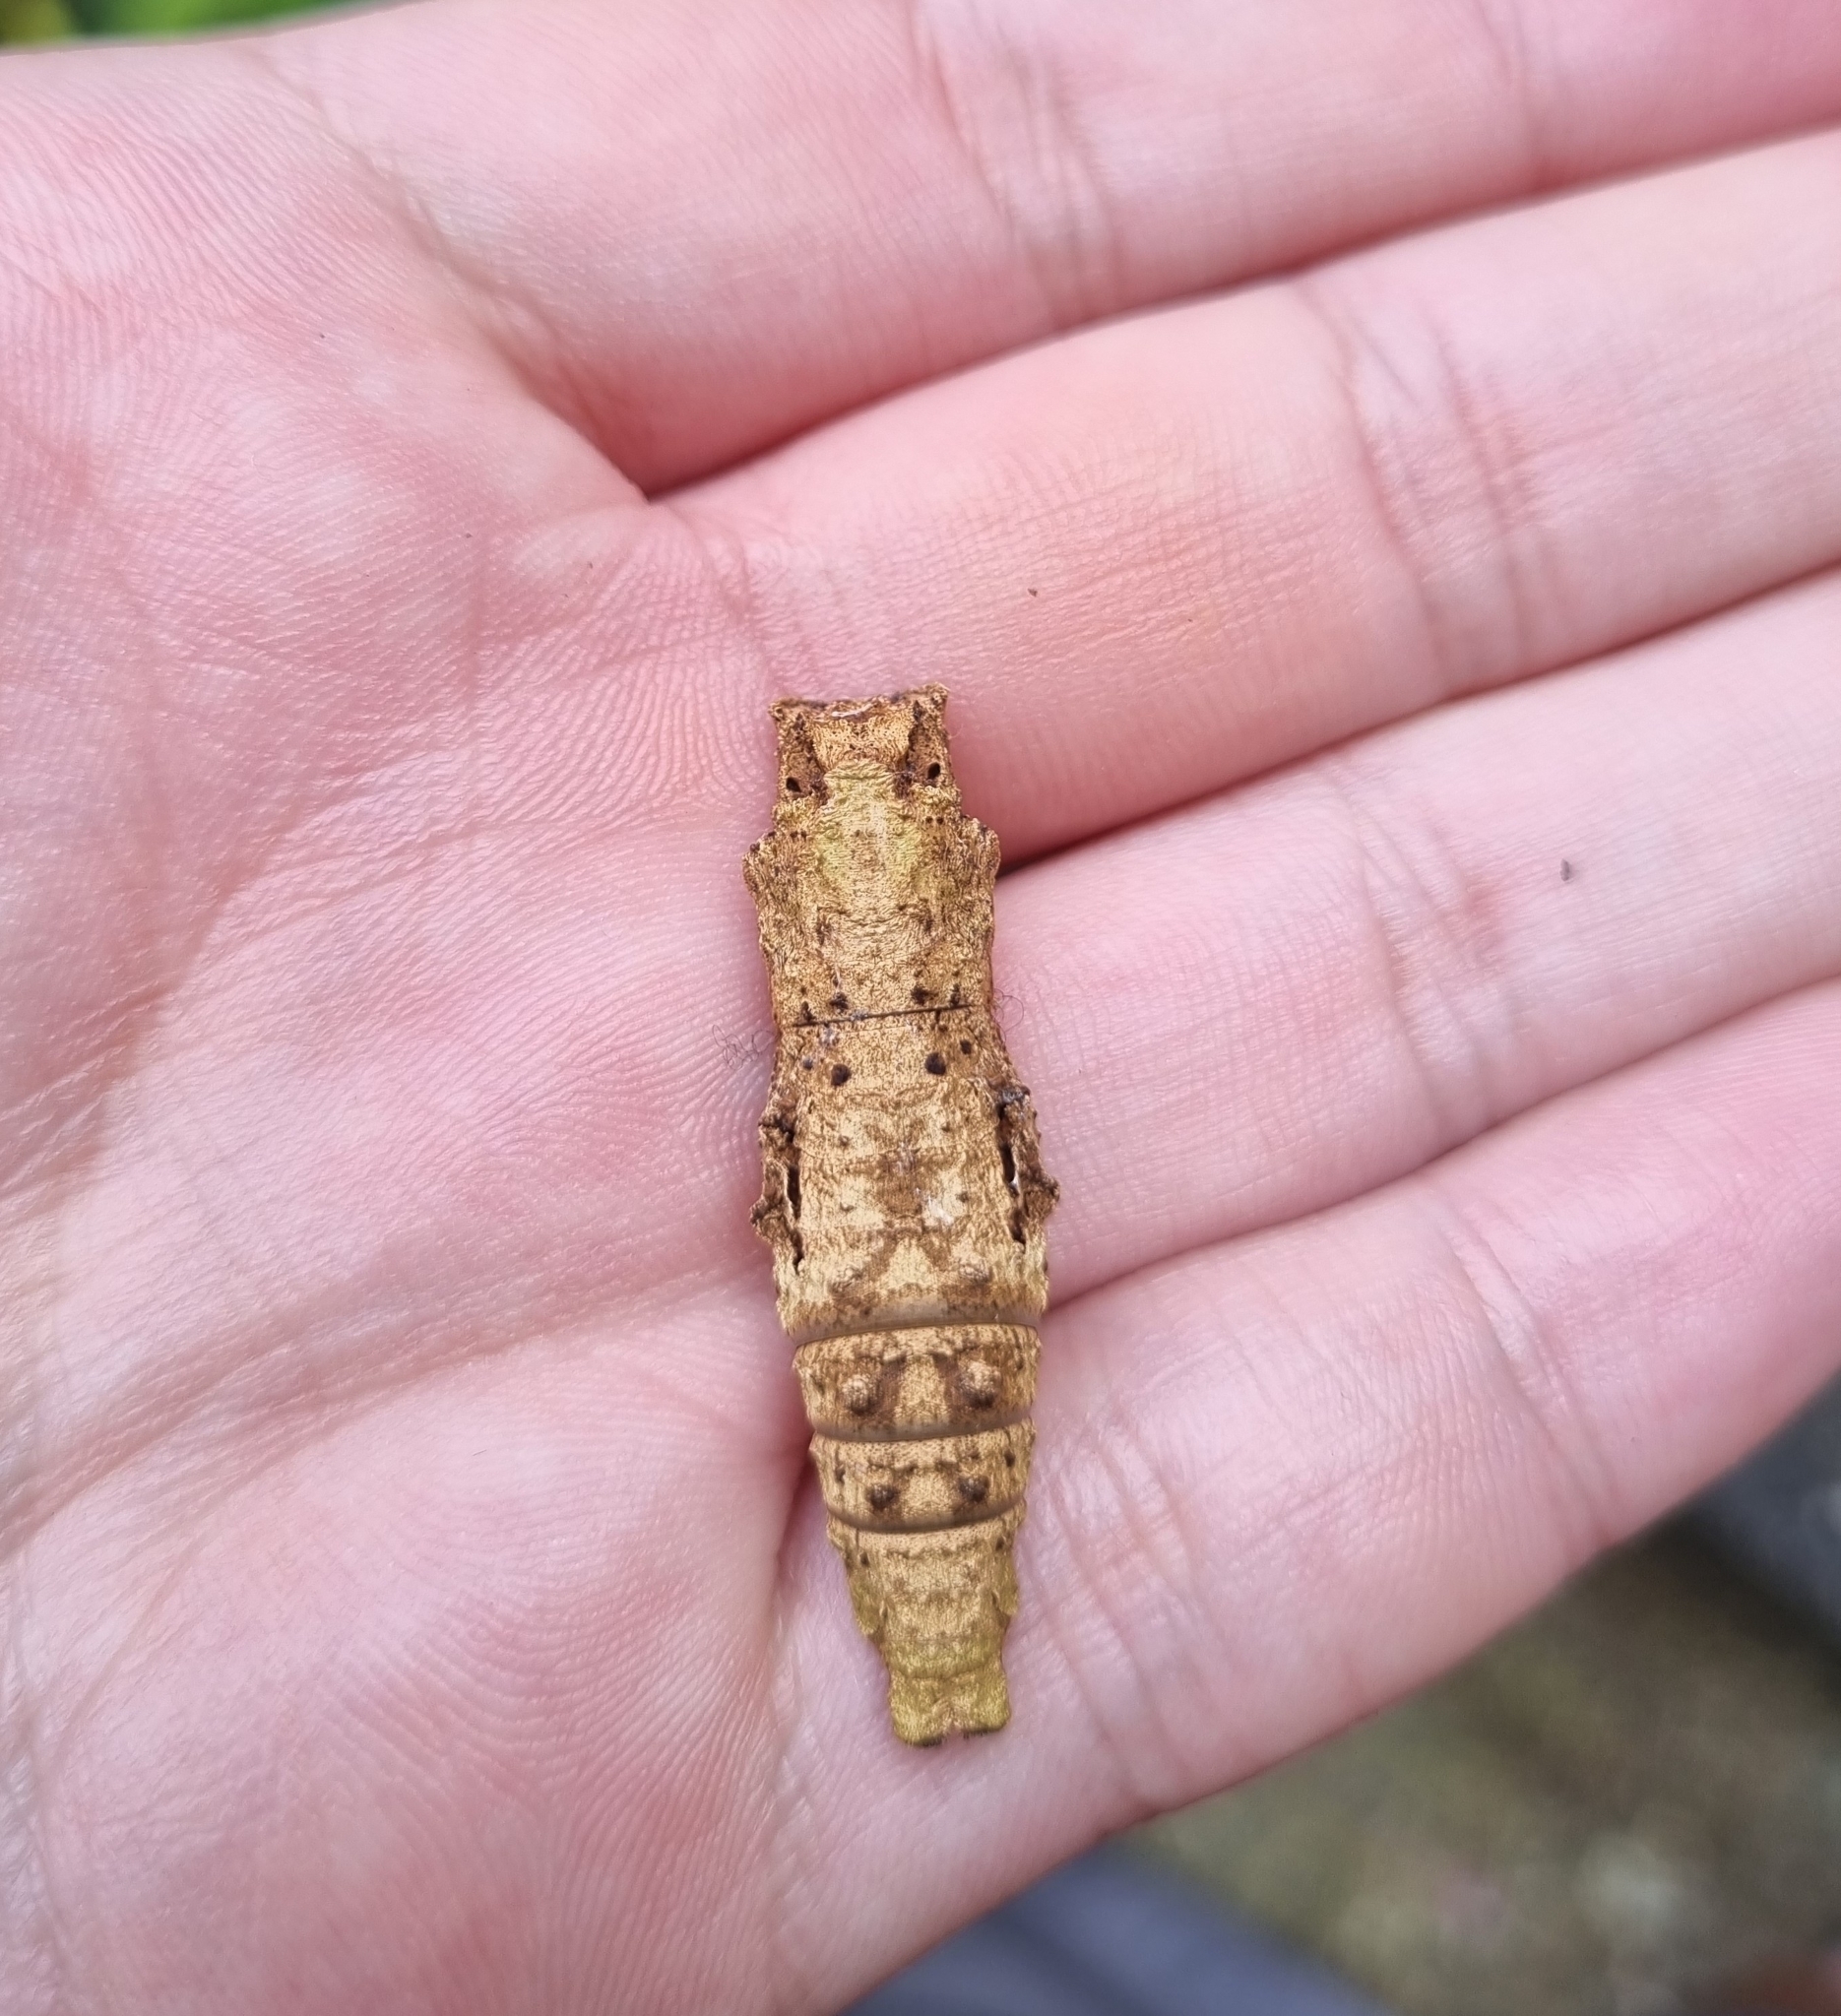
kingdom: Animalia
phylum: Arthropoda
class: Insecta
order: Lepidoptera
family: Papilionidae
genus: Papilio
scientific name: Papilio anchisiades
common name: Idaes swallowtail
